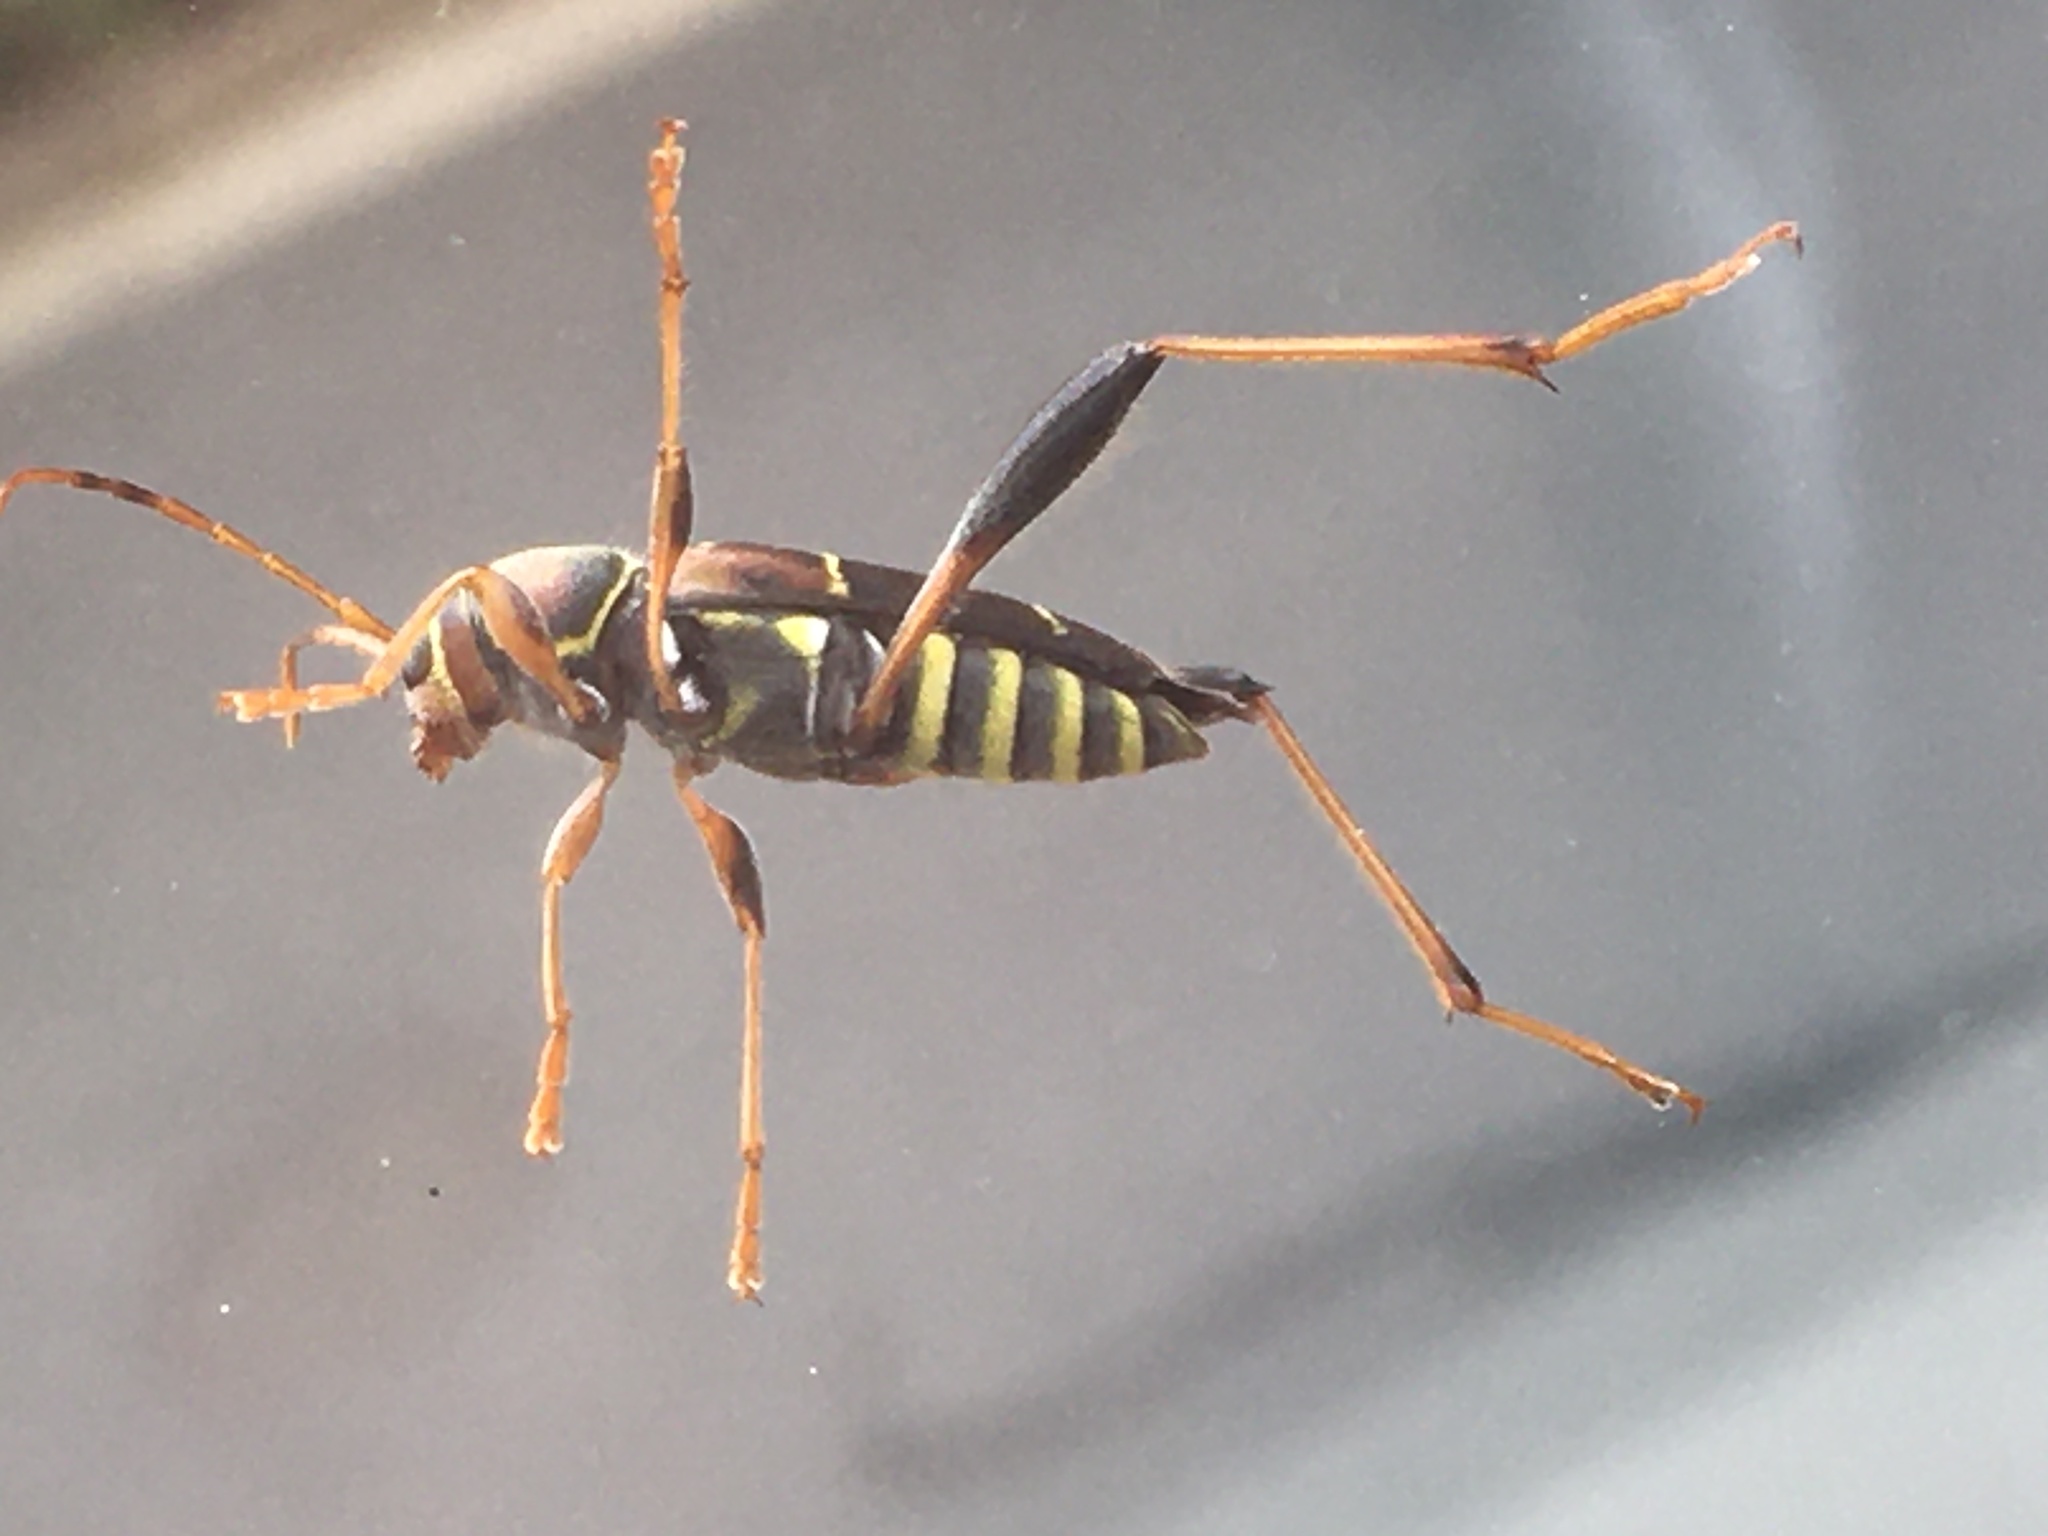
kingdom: Animalia
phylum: Arthropoda
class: Insecta
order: Coleoptera
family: Cerambycidae
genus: Neoclytus
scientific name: Neoclytus mucronatus
